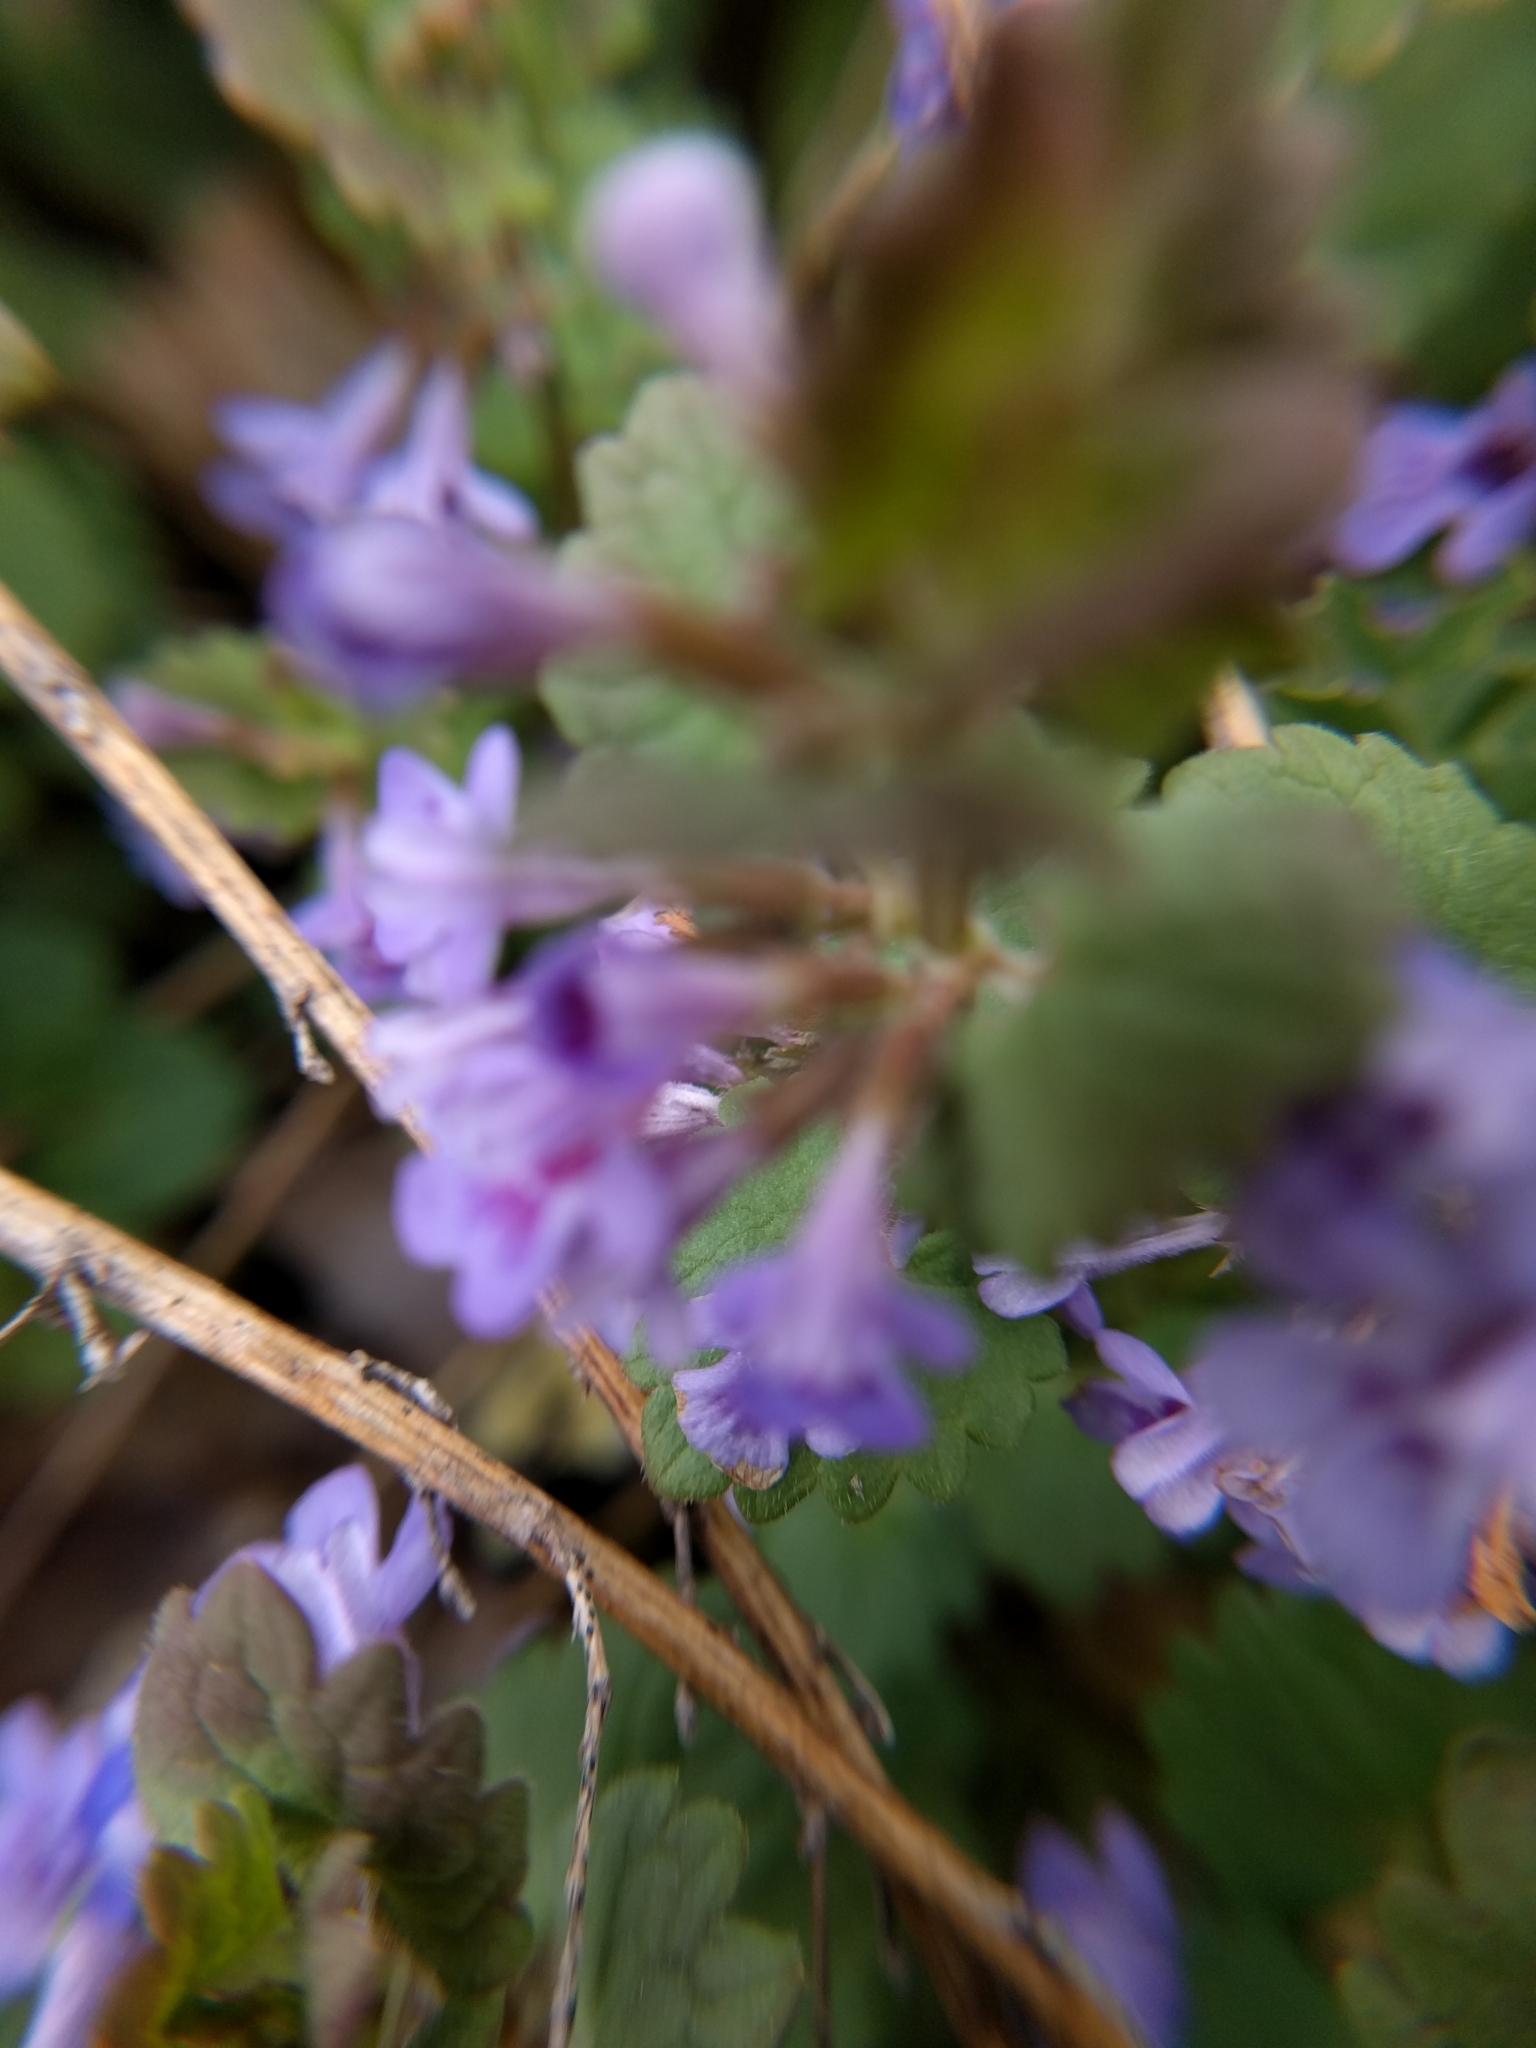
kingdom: Plantae
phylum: Tracheophyta
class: Magnoliopsida
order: Lamiales
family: Lamiaceae
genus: Glechoma
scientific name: Glechoma hederacea
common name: Ground ivy
